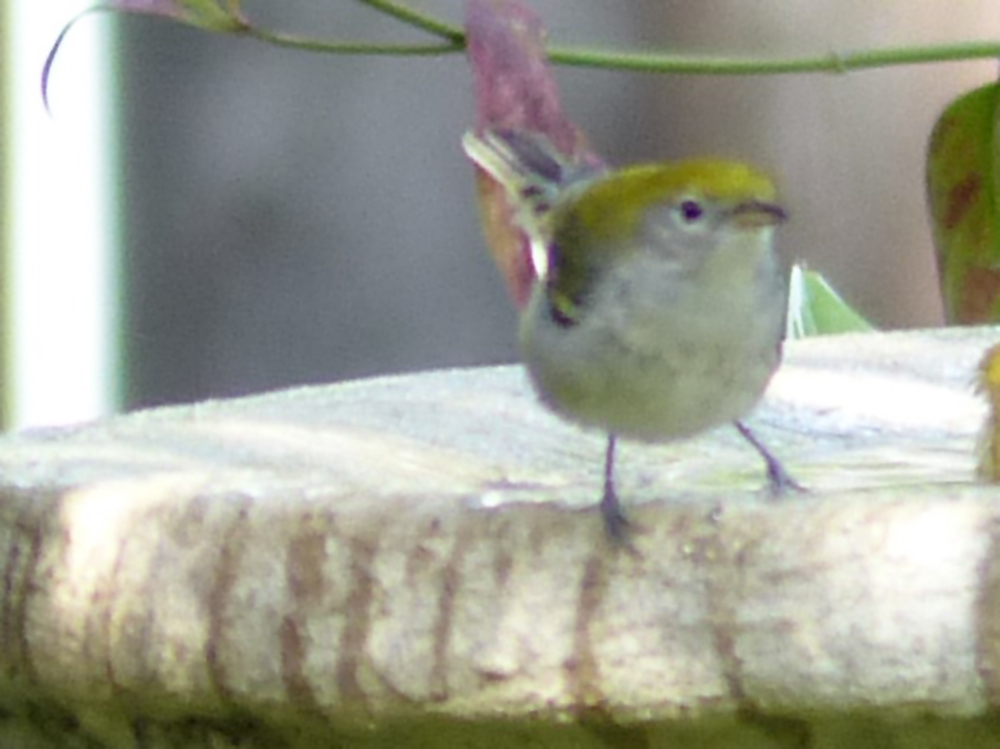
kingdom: Animalia
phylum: Chordata
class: Aves
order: Passeriformes
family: Parulidae
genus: Setophaga
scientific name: Setophaga pensylvanica
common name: Chestnut-sided warbler
